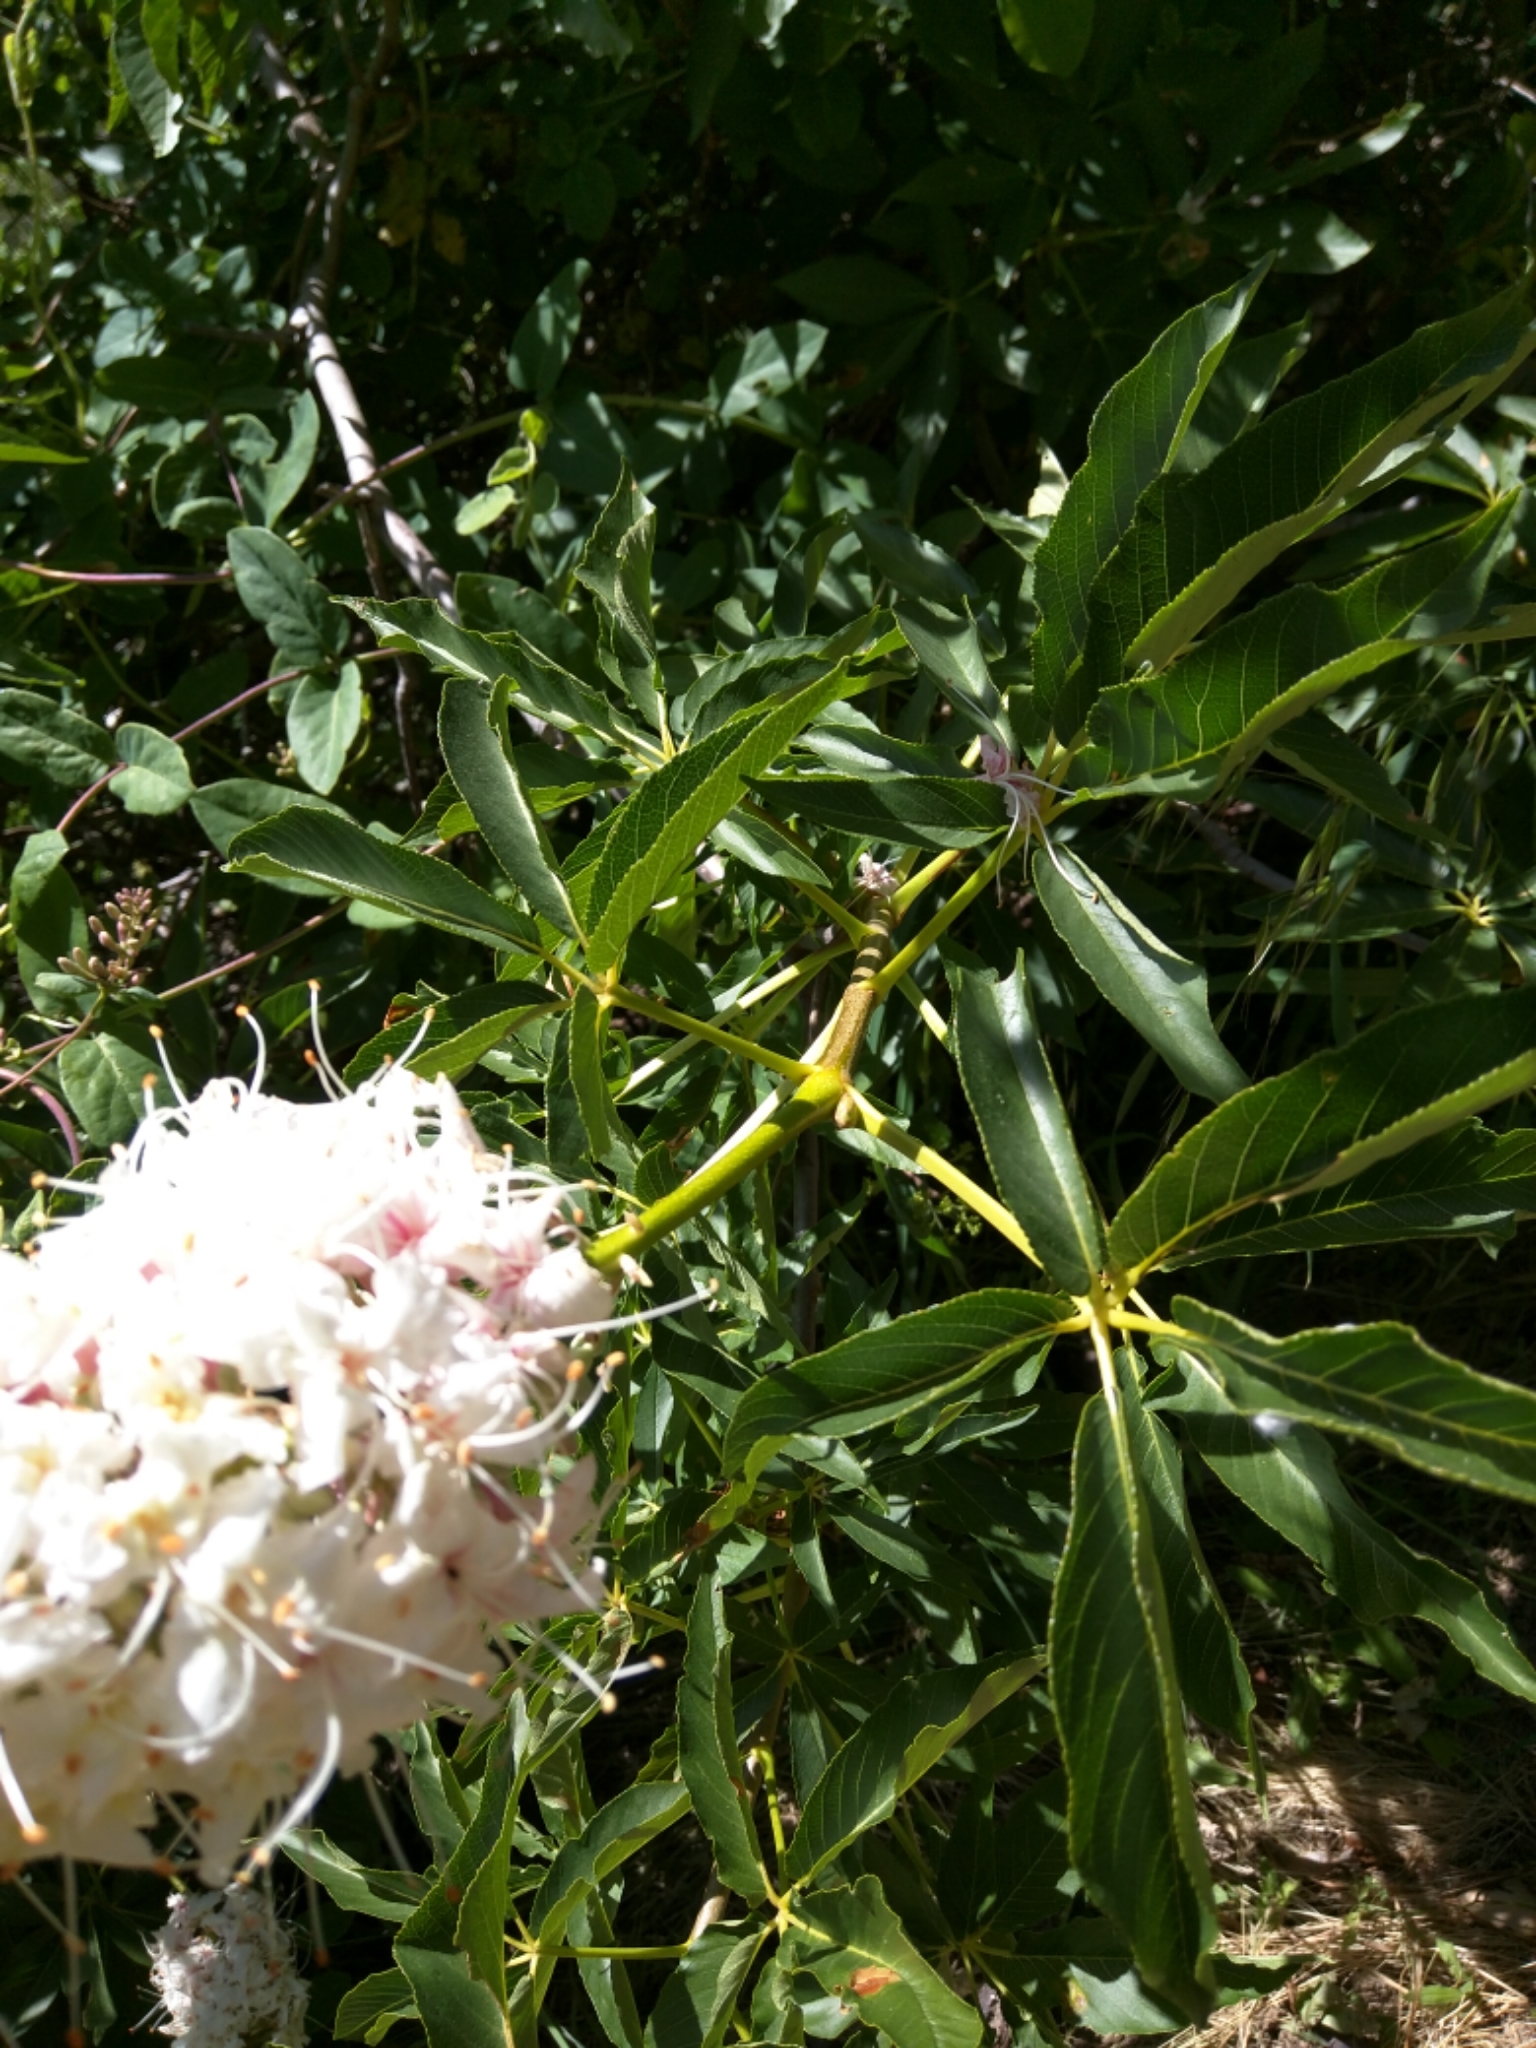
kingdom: Plantae
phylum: Tracheophyta
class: Magnoliopsida
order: Sapindales
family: Sapindaceae
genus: Aesculus
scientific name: Aesculus californica
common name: California buckeye
